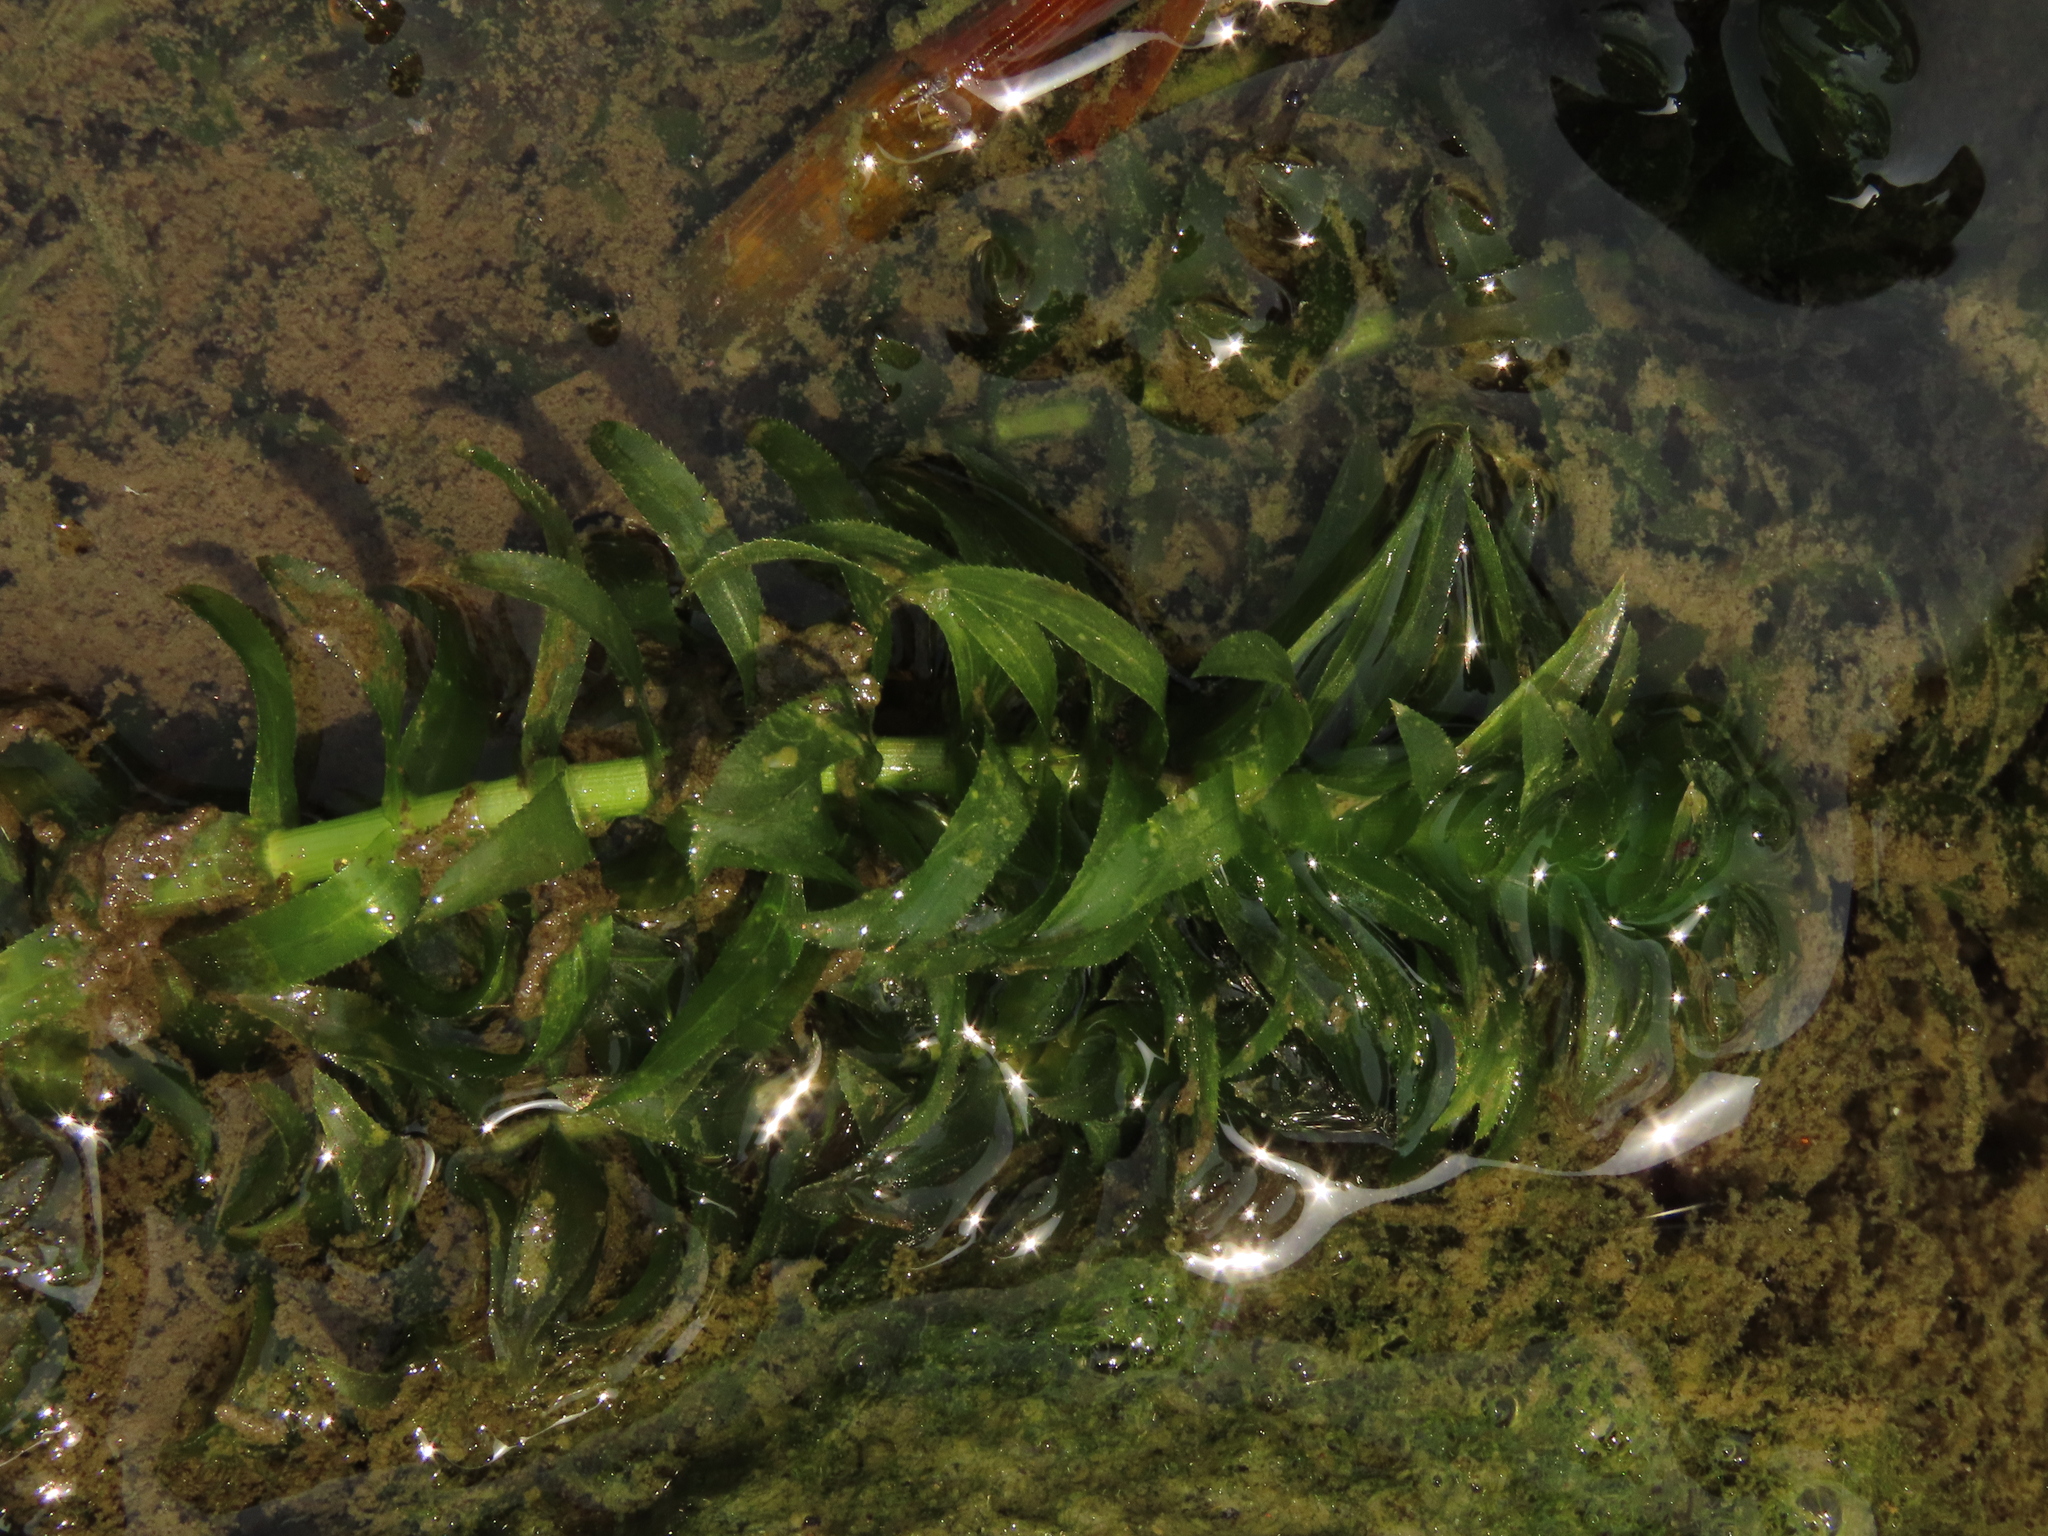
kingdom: Plantae
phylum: Tracheophyta
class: Liliopsida
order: Alismatales
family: Hydrocharitaceae
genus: Hydrilla
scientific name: Hydrilla verticillata
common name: Florida-elodea
